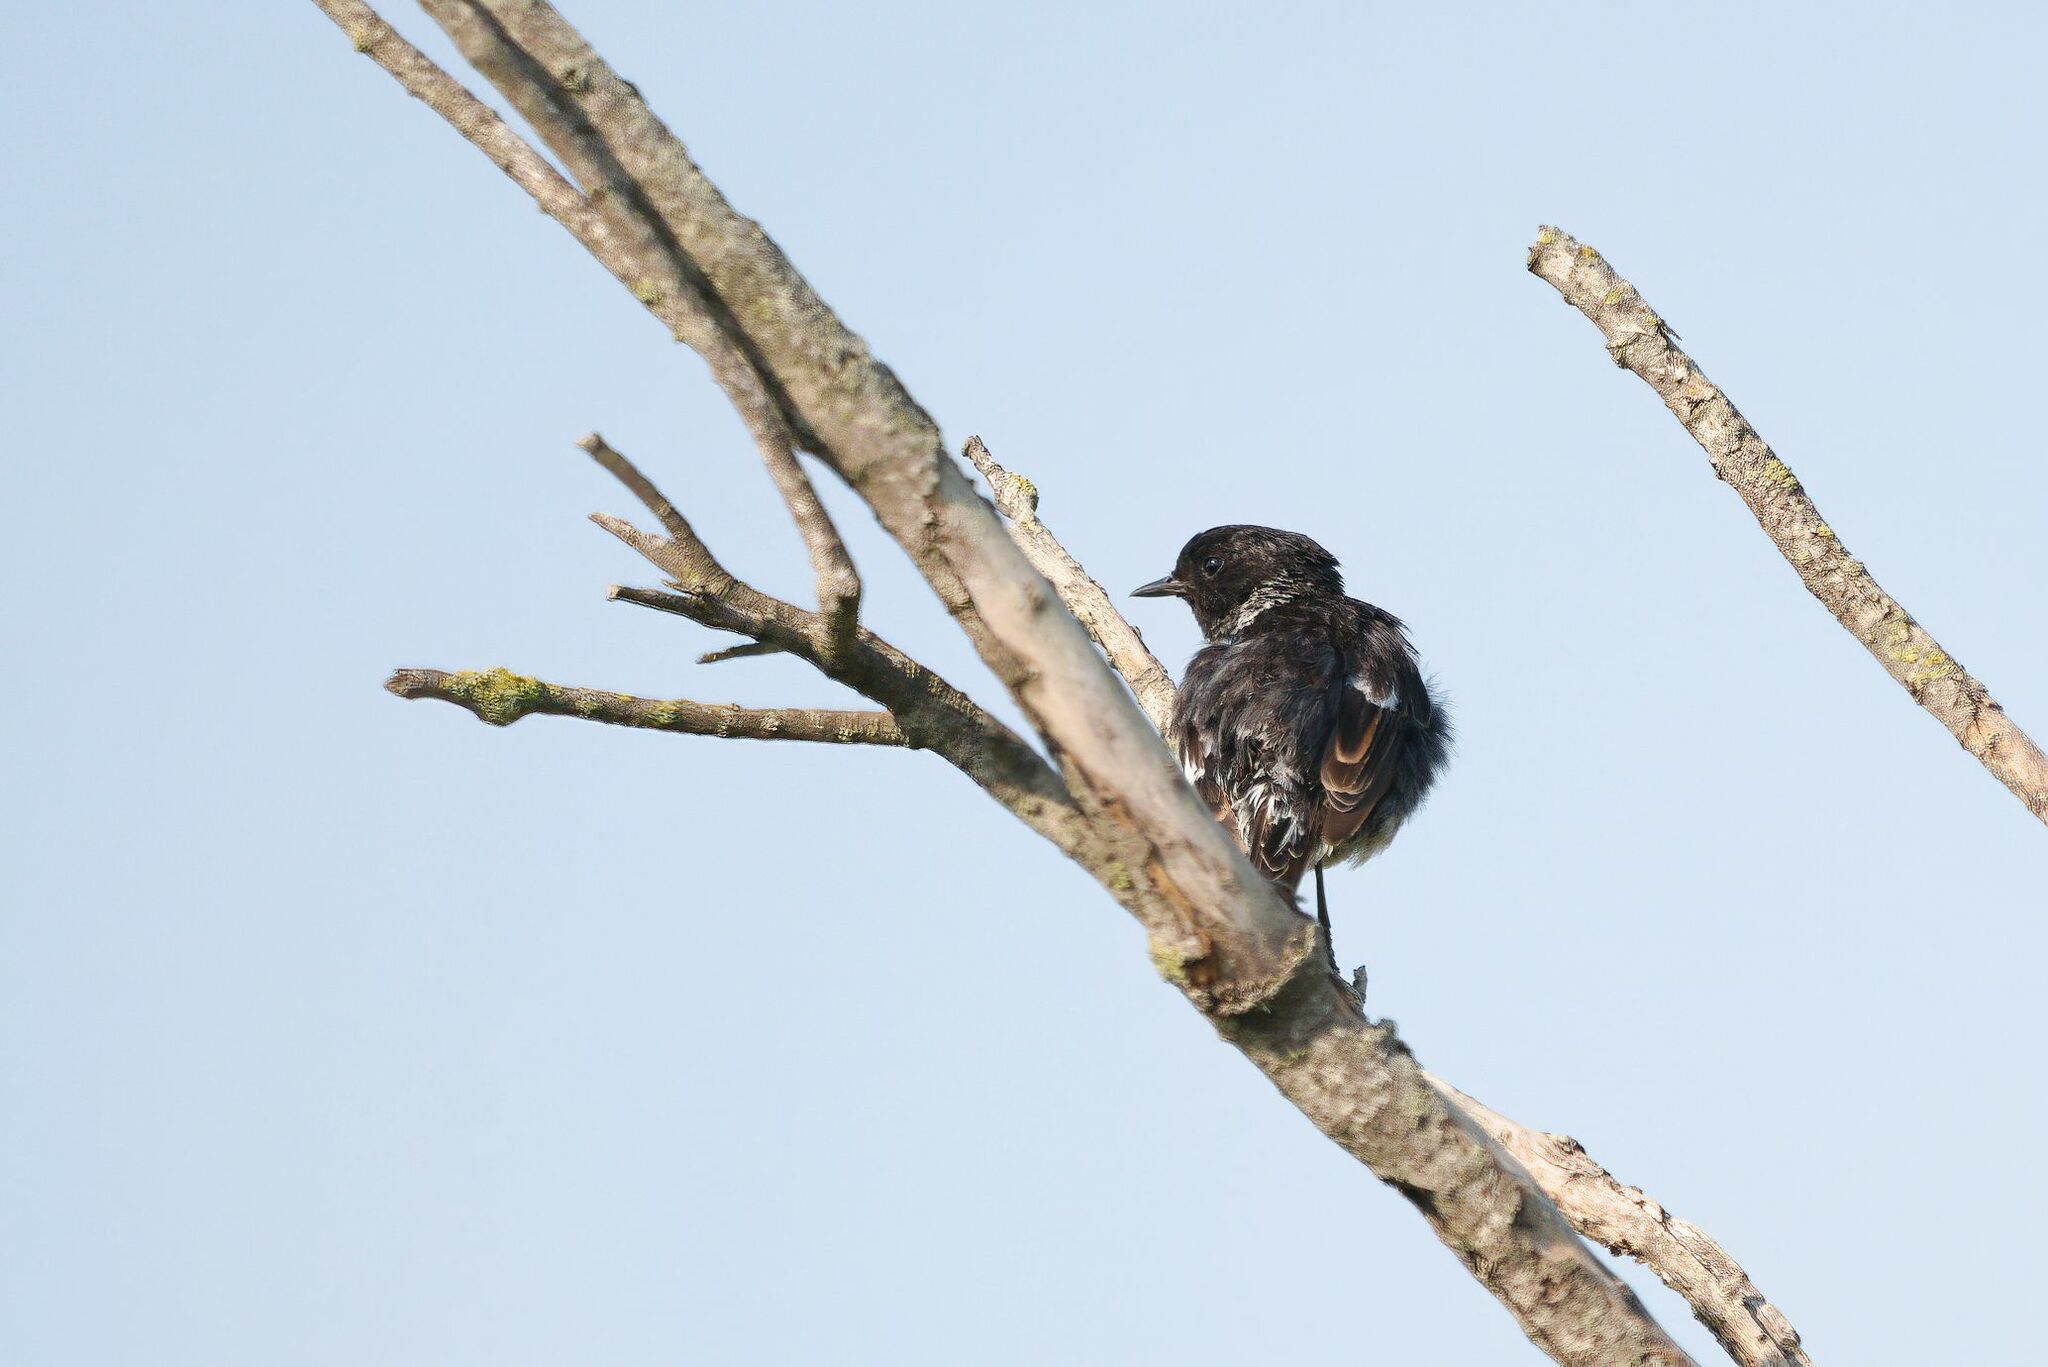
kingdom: Animalia
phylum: Chordata
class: Aves
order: Passeriformes
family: Muscicapidae
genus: Saxicola
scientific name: Saxicola rubicola
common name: European stonechat
